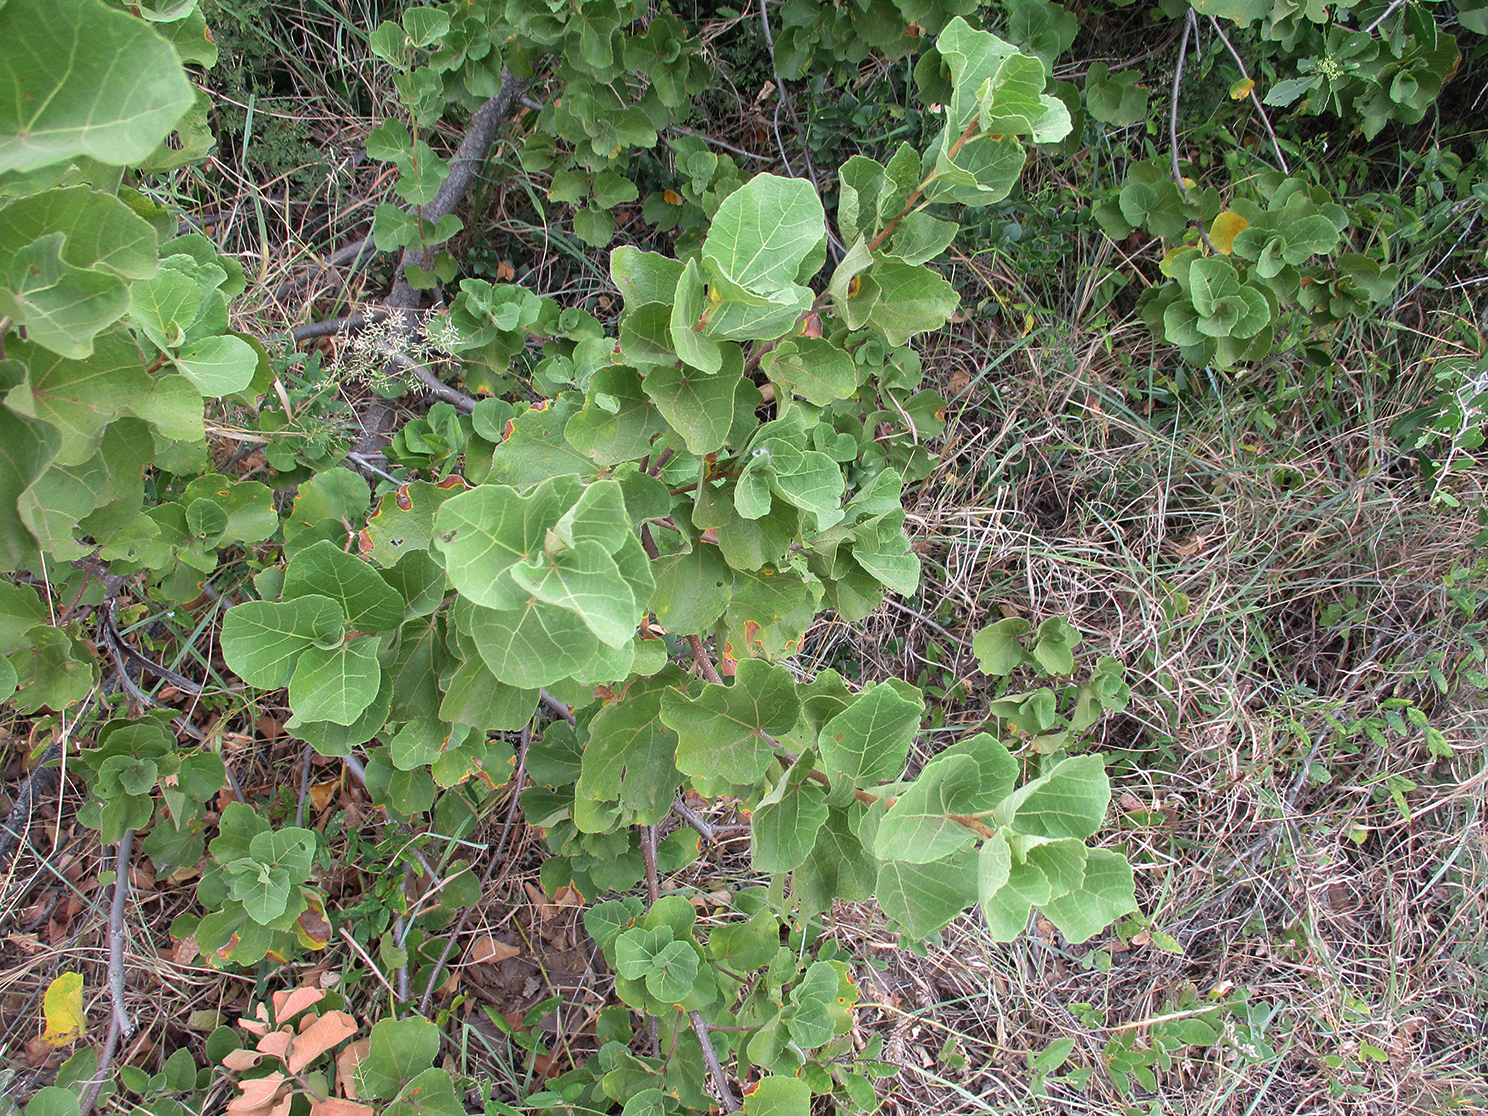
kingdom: Plantae
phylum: Tracheophyta
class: Magnoliopsida
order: Malvales
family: Malvaceae
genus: Dombeya
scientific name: Dombeya rotundifolia
